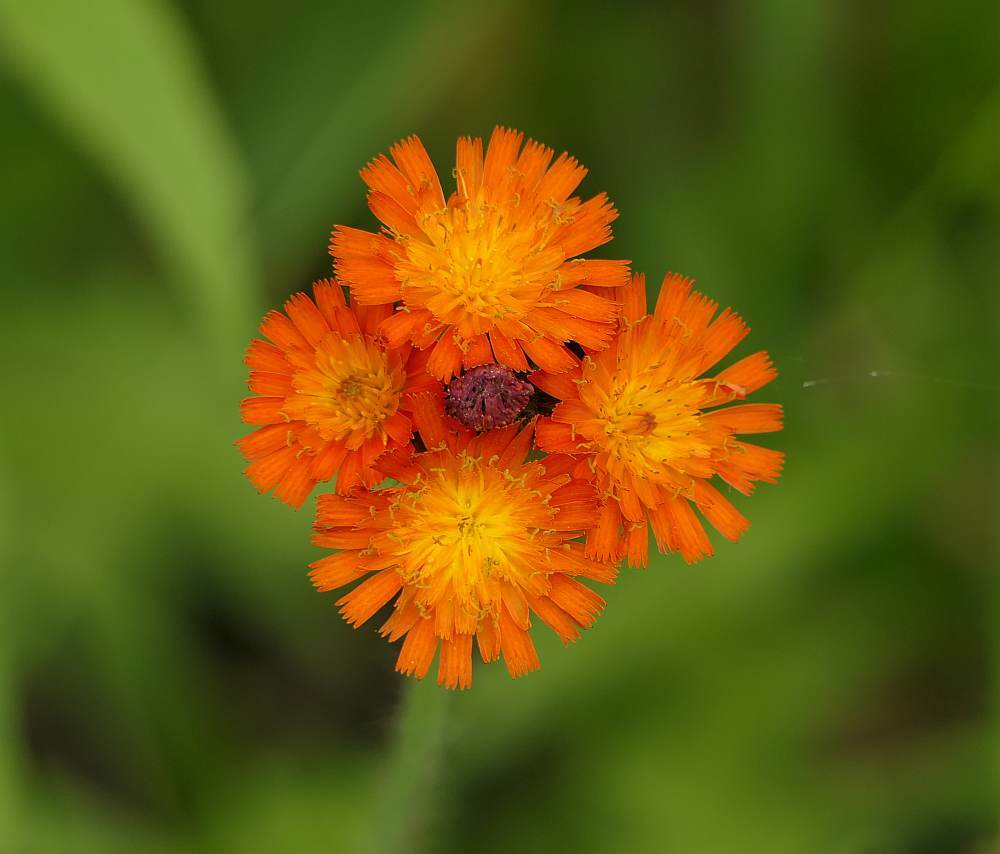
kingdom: Plantae
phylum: Tracheophyta
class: Magnoliopsida
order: Asterales
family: Asteraceae
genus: Pilosella
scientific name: Pilosella aurantiaca
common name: Fox-and-cubs
